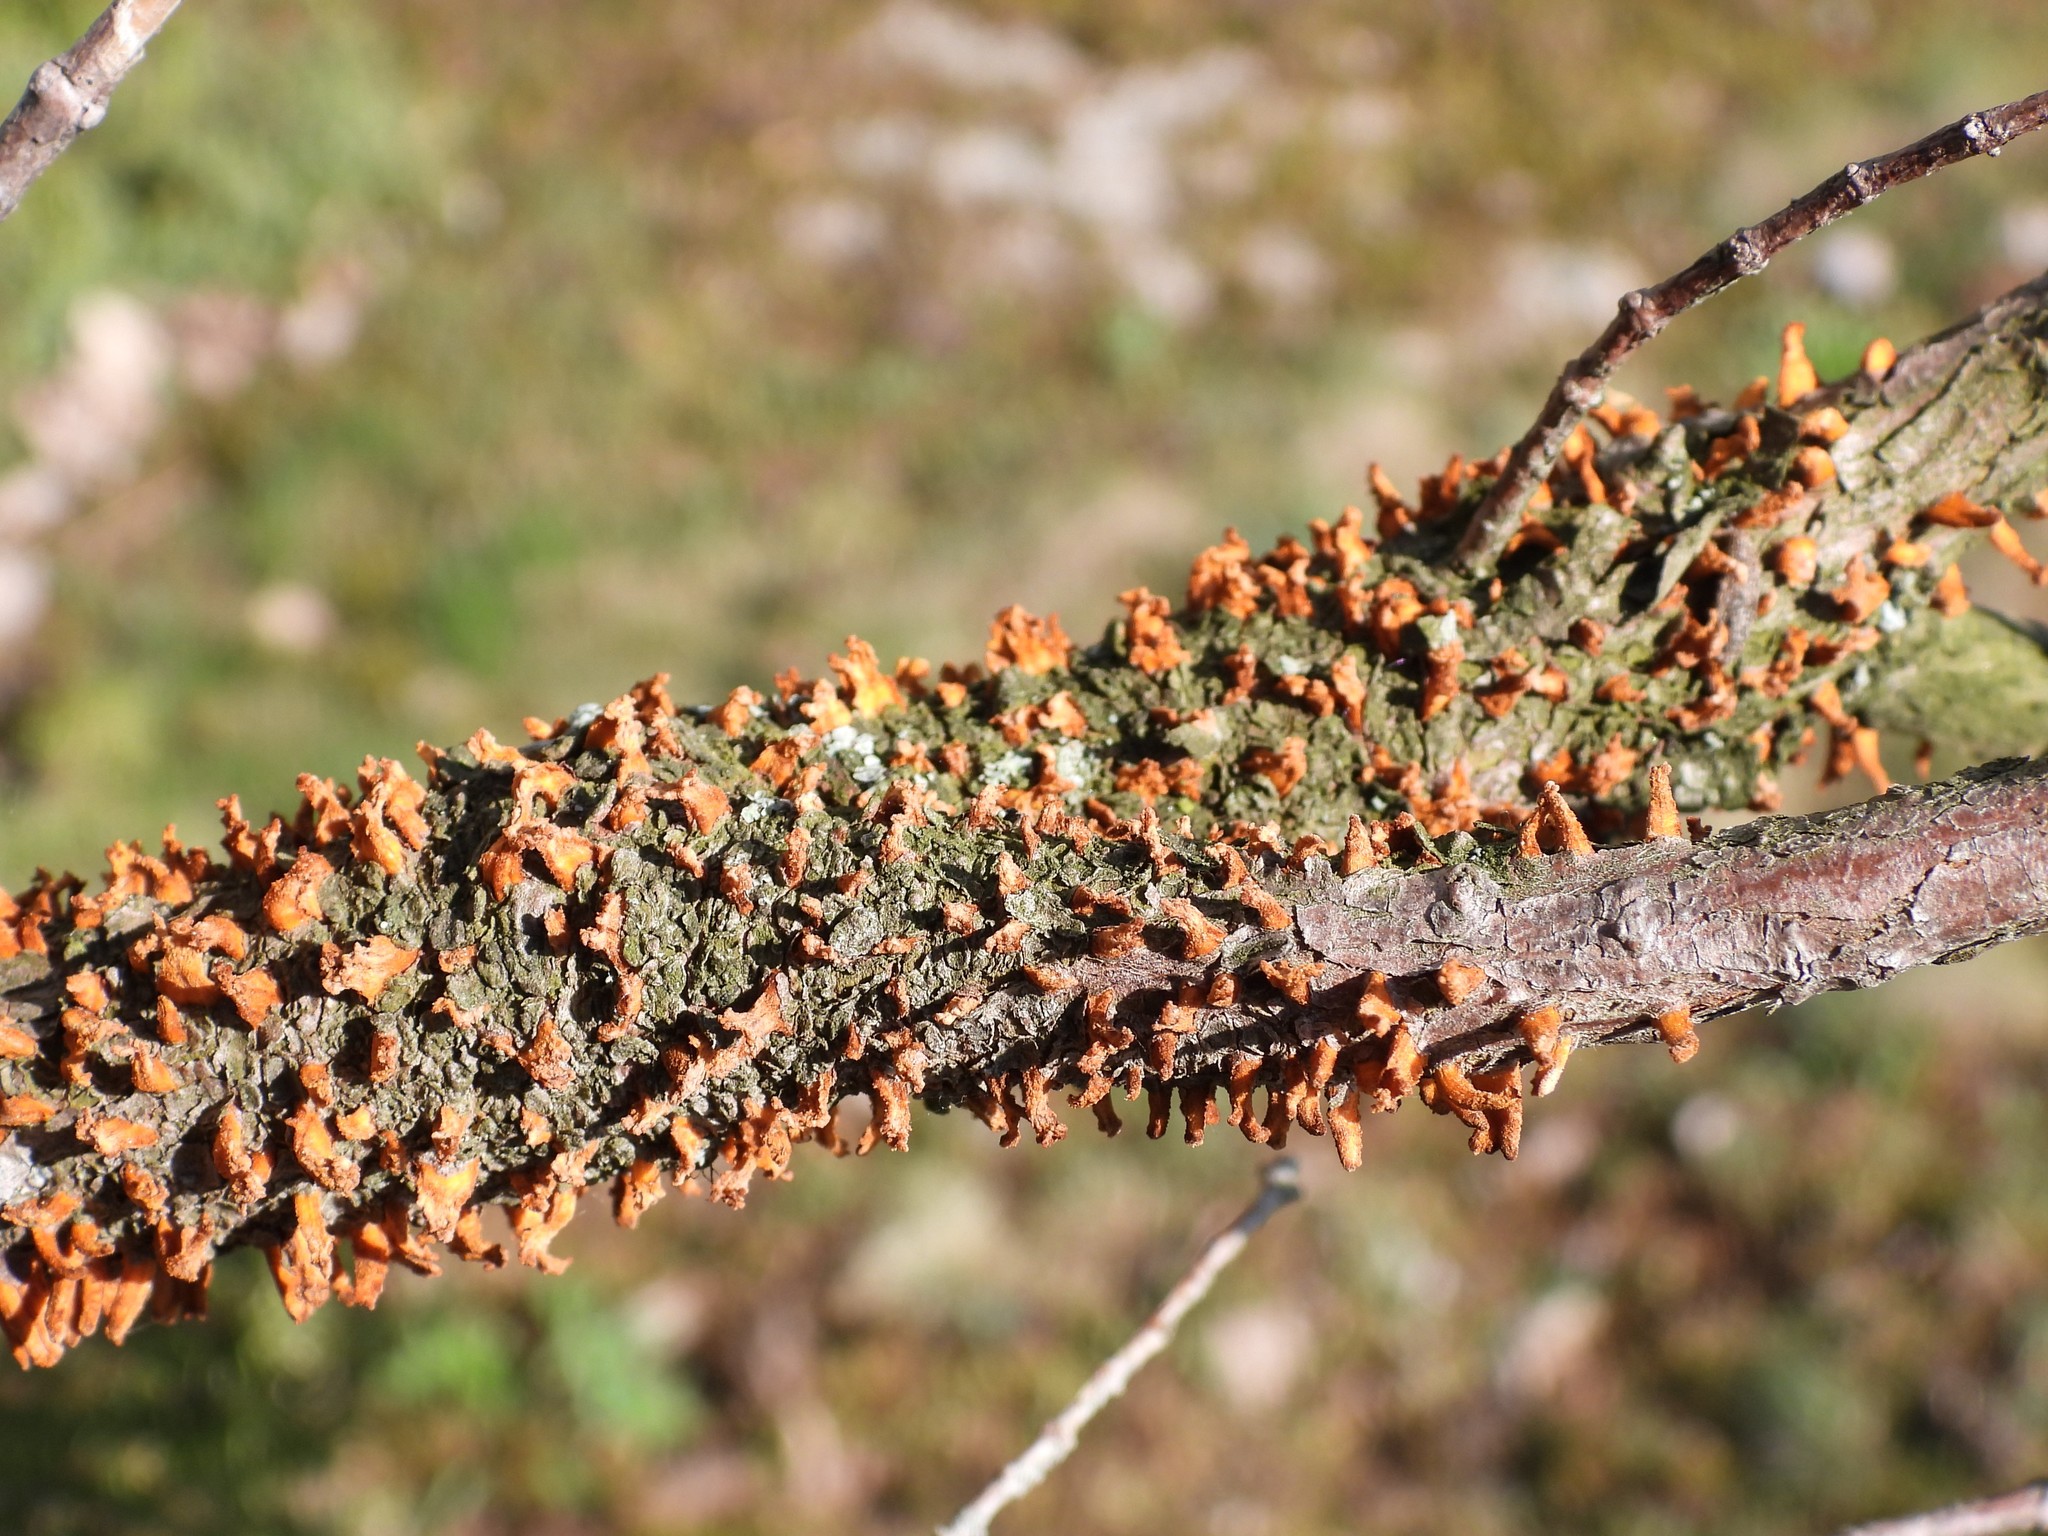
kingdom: Fungi
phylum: Basidiomycota
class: Pucciniomycetes
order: Pucciniales
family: Gymnosporangiaceae
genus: Gymnosporangium
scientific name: Gymnosporangium clavariiforme
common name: Tongues of fire
